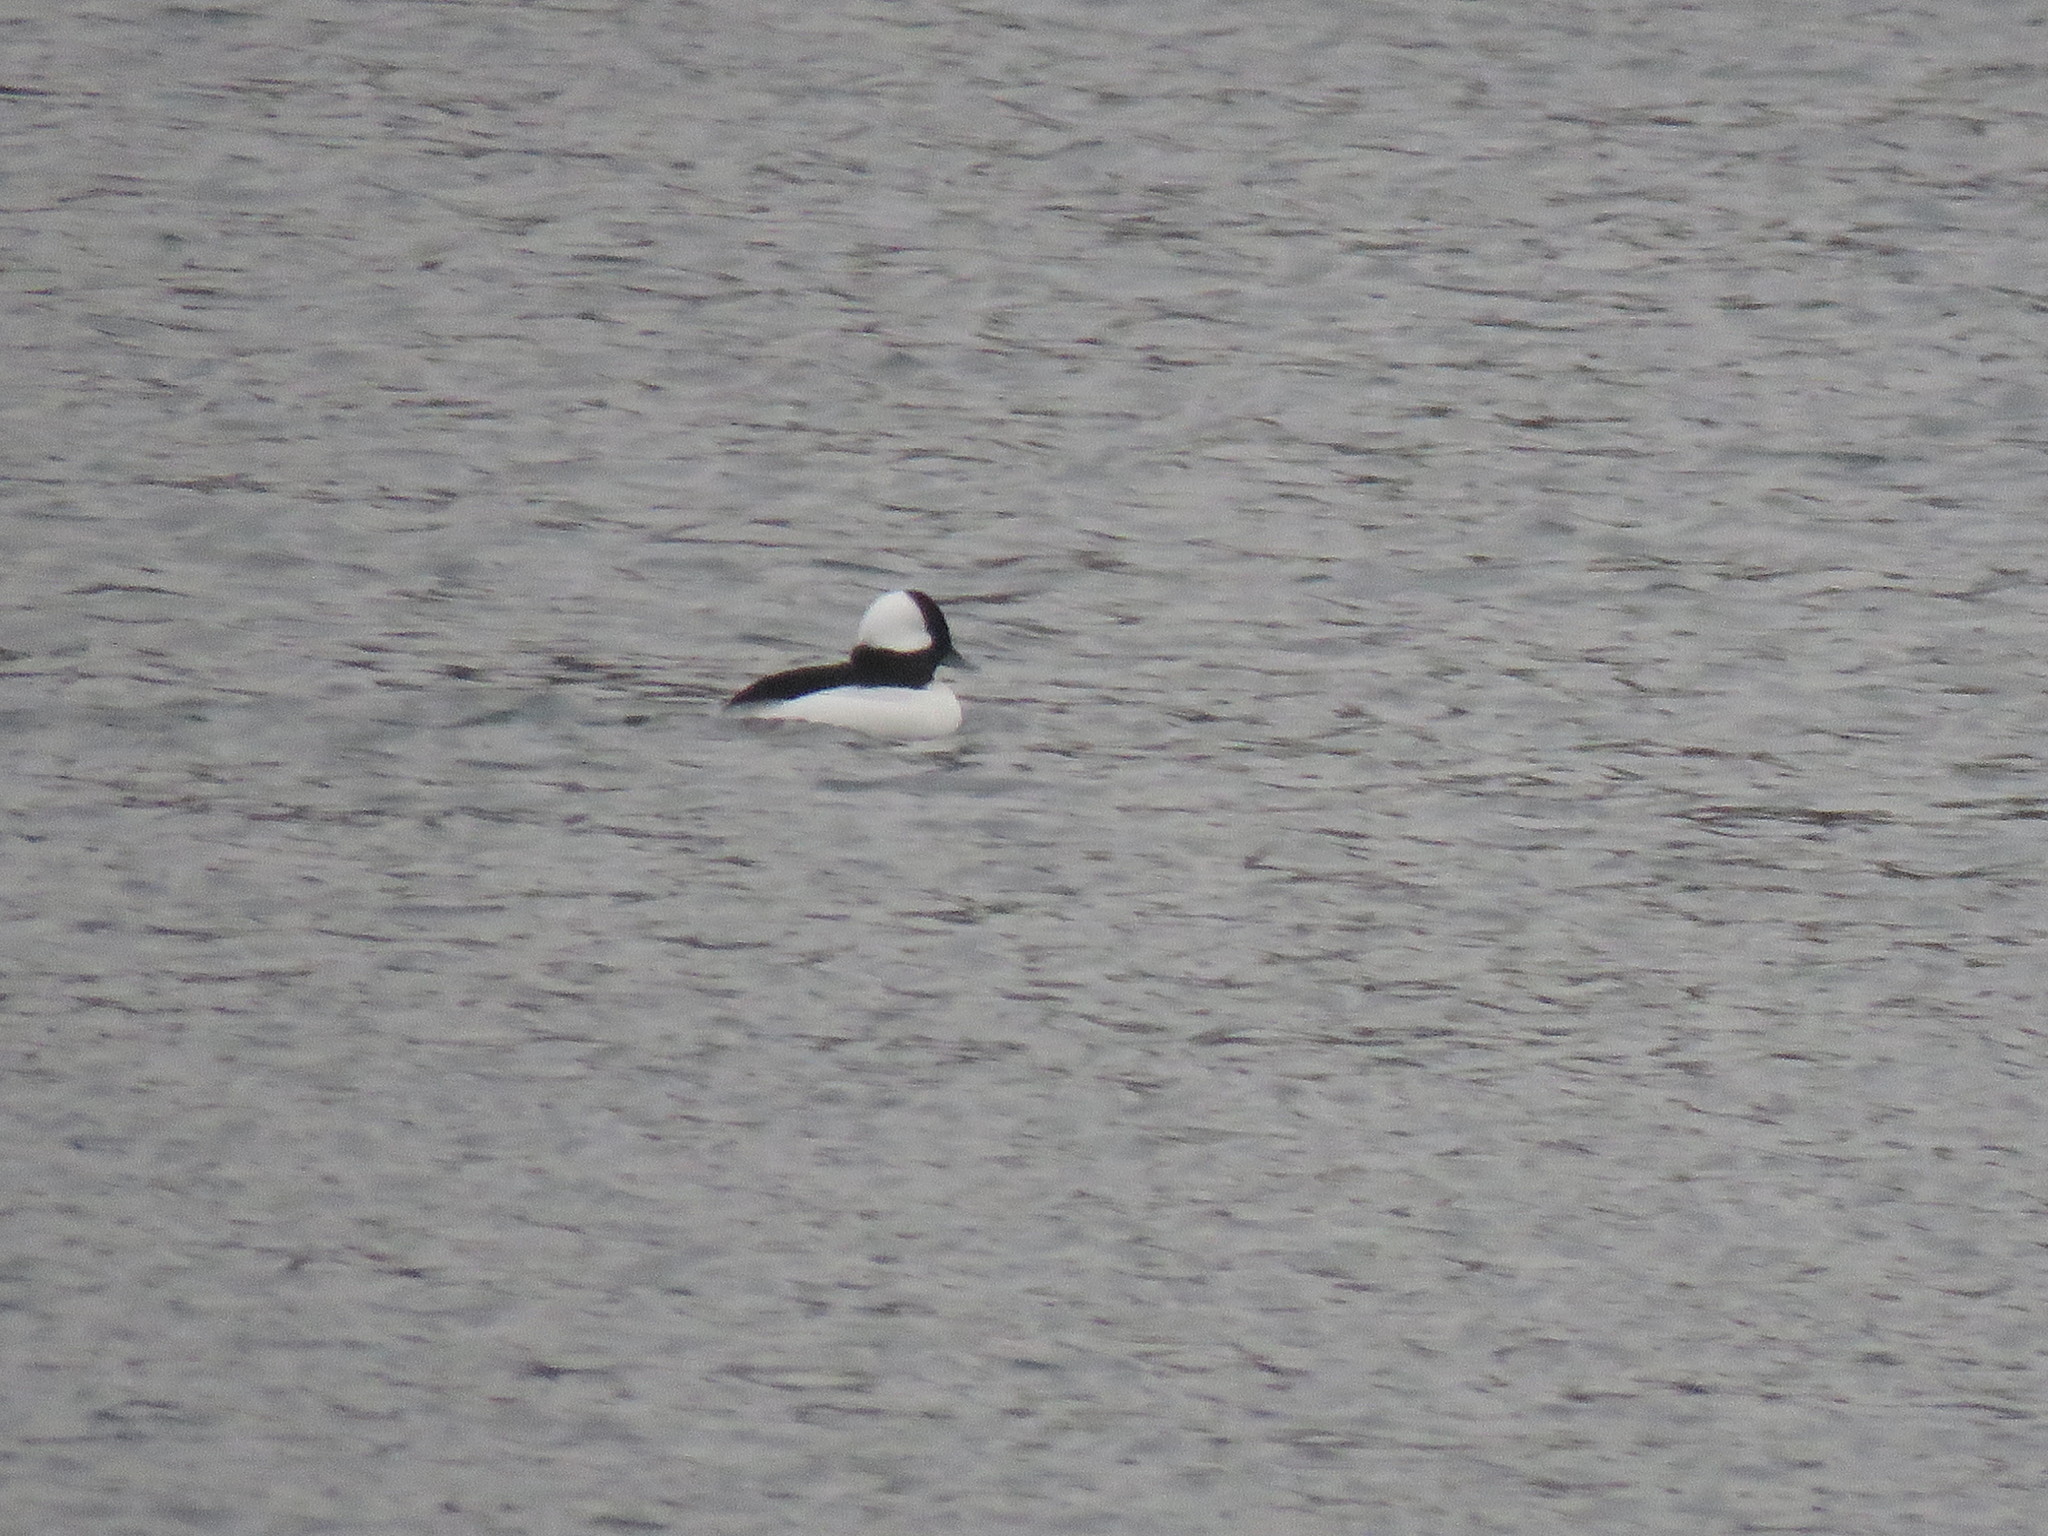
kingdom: Animalia
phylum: Chordata
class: Aves
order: Anseriformes
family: Anatidae
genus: Bucephala
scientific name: Bucephala albeola
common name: Bufflehead
